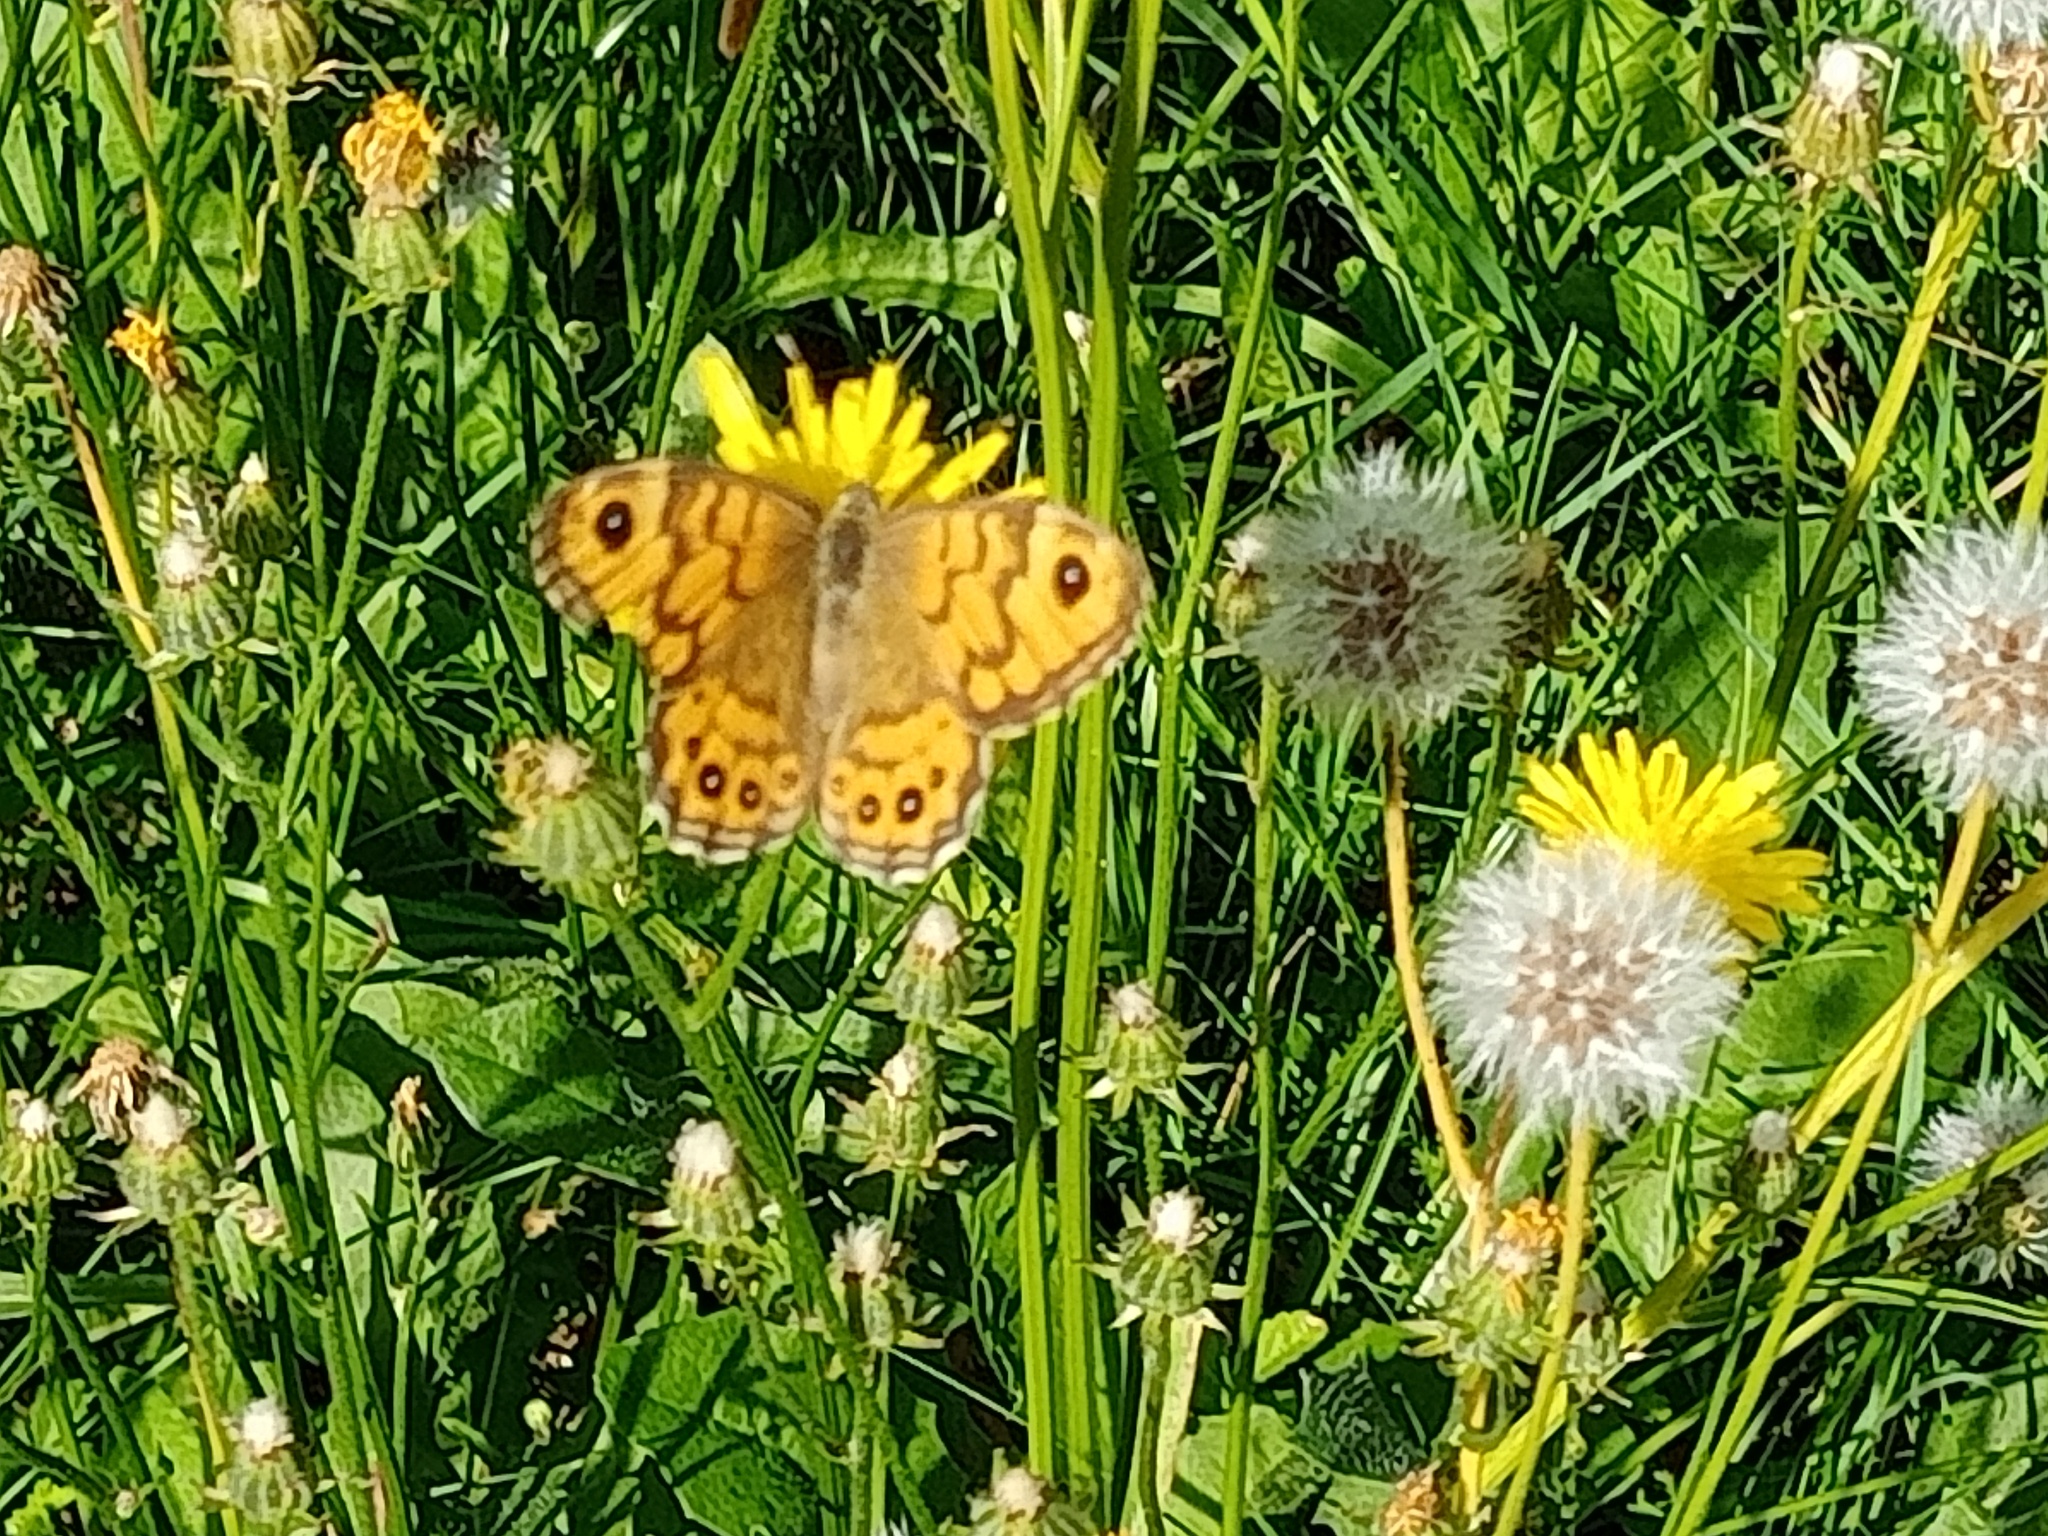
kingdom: Animalia
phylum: Arthropoda
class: Insecta
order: Lepidoptera
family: Nymphalidae
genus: Pararge
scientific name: Pararge Lasiommata megera
